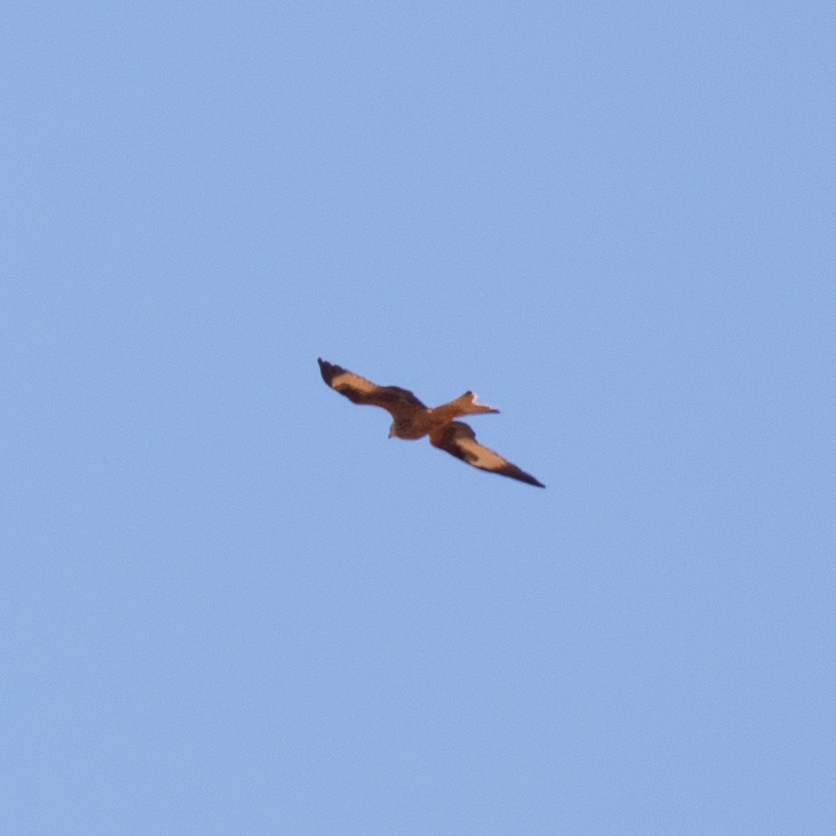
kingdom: Animalia
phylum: Chordata
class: Aves
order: Accipitriformes
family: Accipitridae
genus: Milvus
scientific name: Milvus milvus
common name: Red kite
